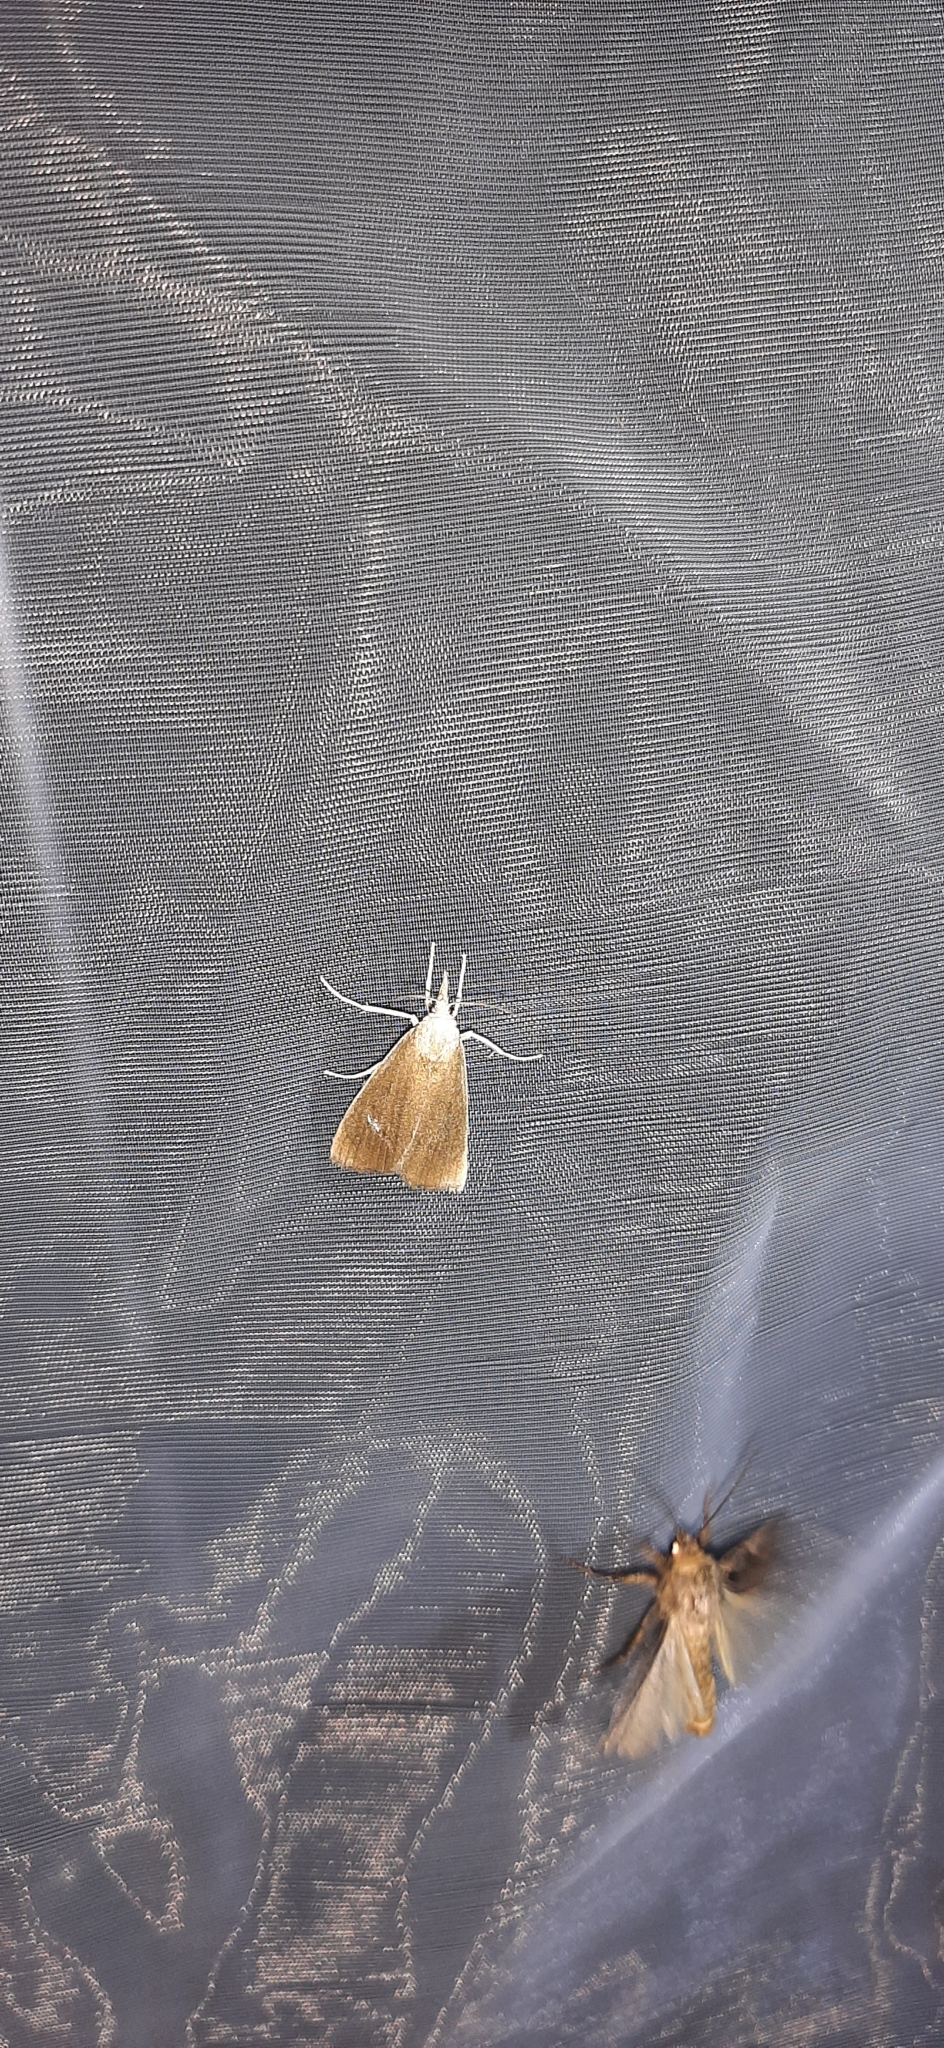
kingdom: Animalia
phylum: Arthropoda
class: Insecta
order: Lepidoptera
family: Crambidae
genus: Calamotropha
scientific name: Calamotropha paludella
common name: Bulrush veneer
